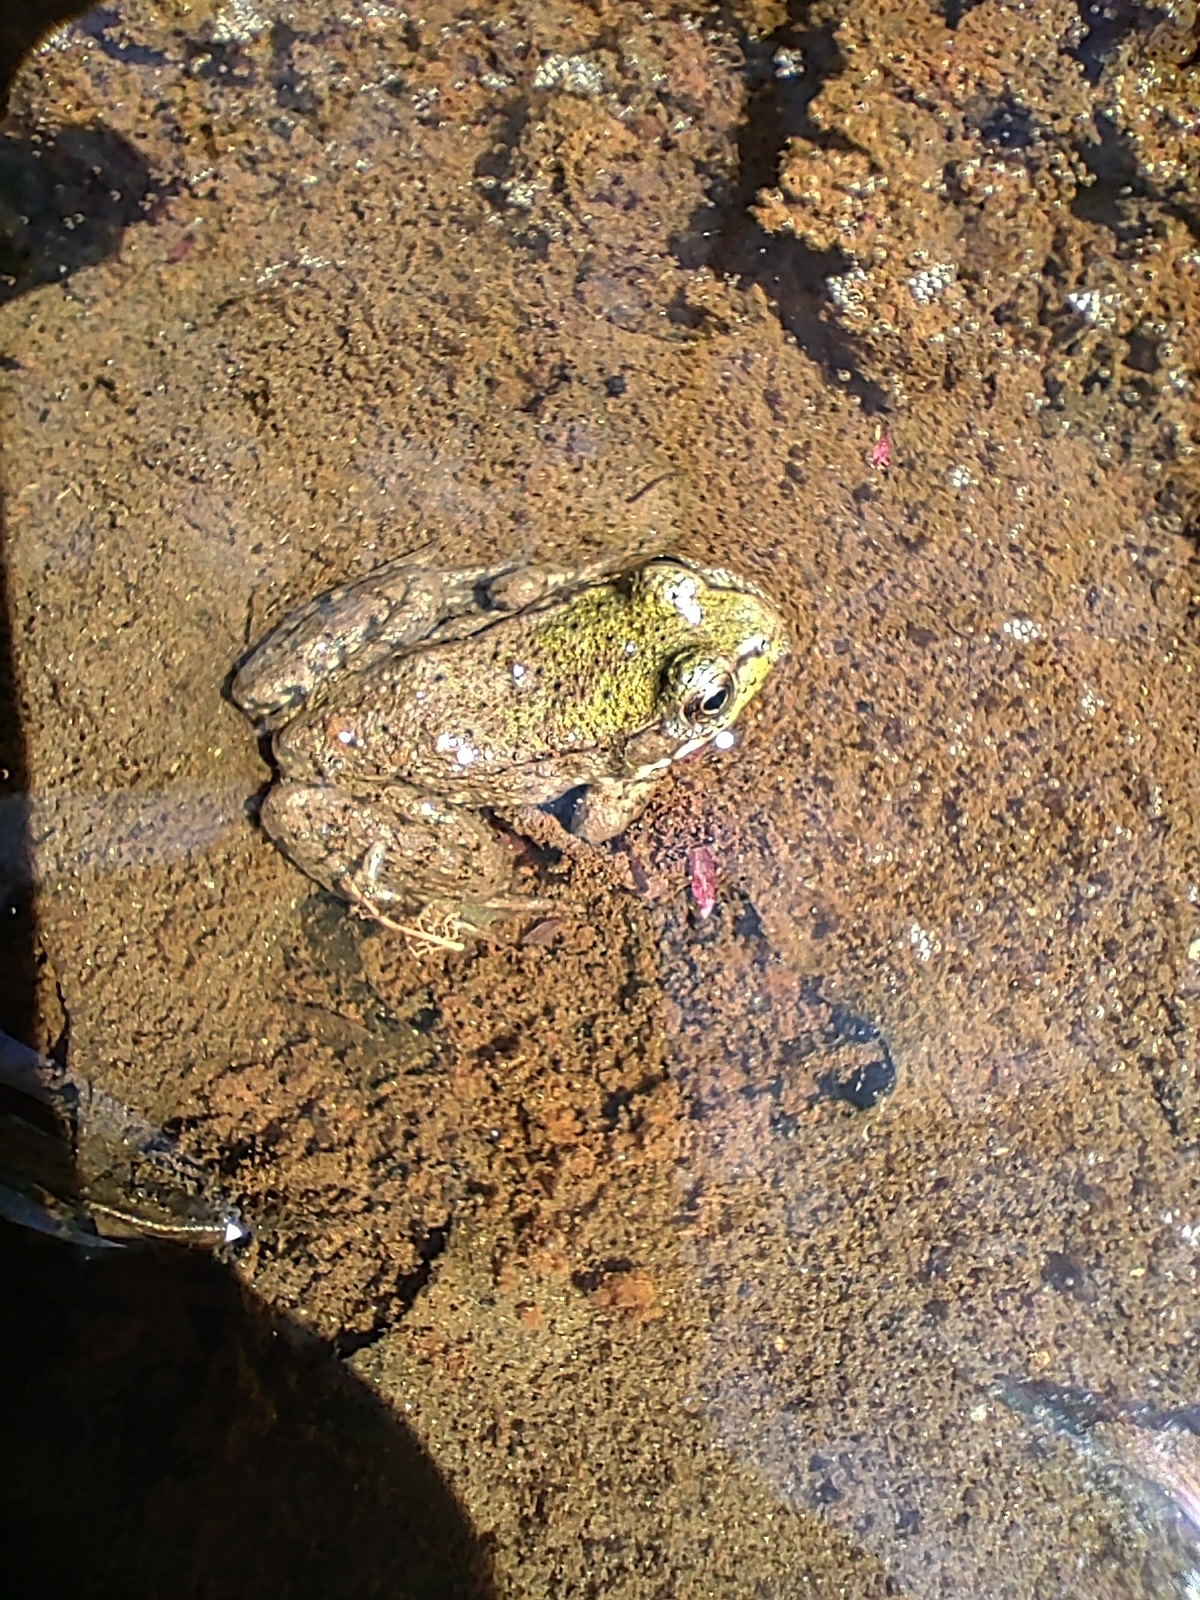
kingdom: Animalia
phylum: Chordata
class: Amphibia
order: Anura
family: Ranidae
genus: Lithobates
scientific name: Lithobates clamitans
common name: Green frog
